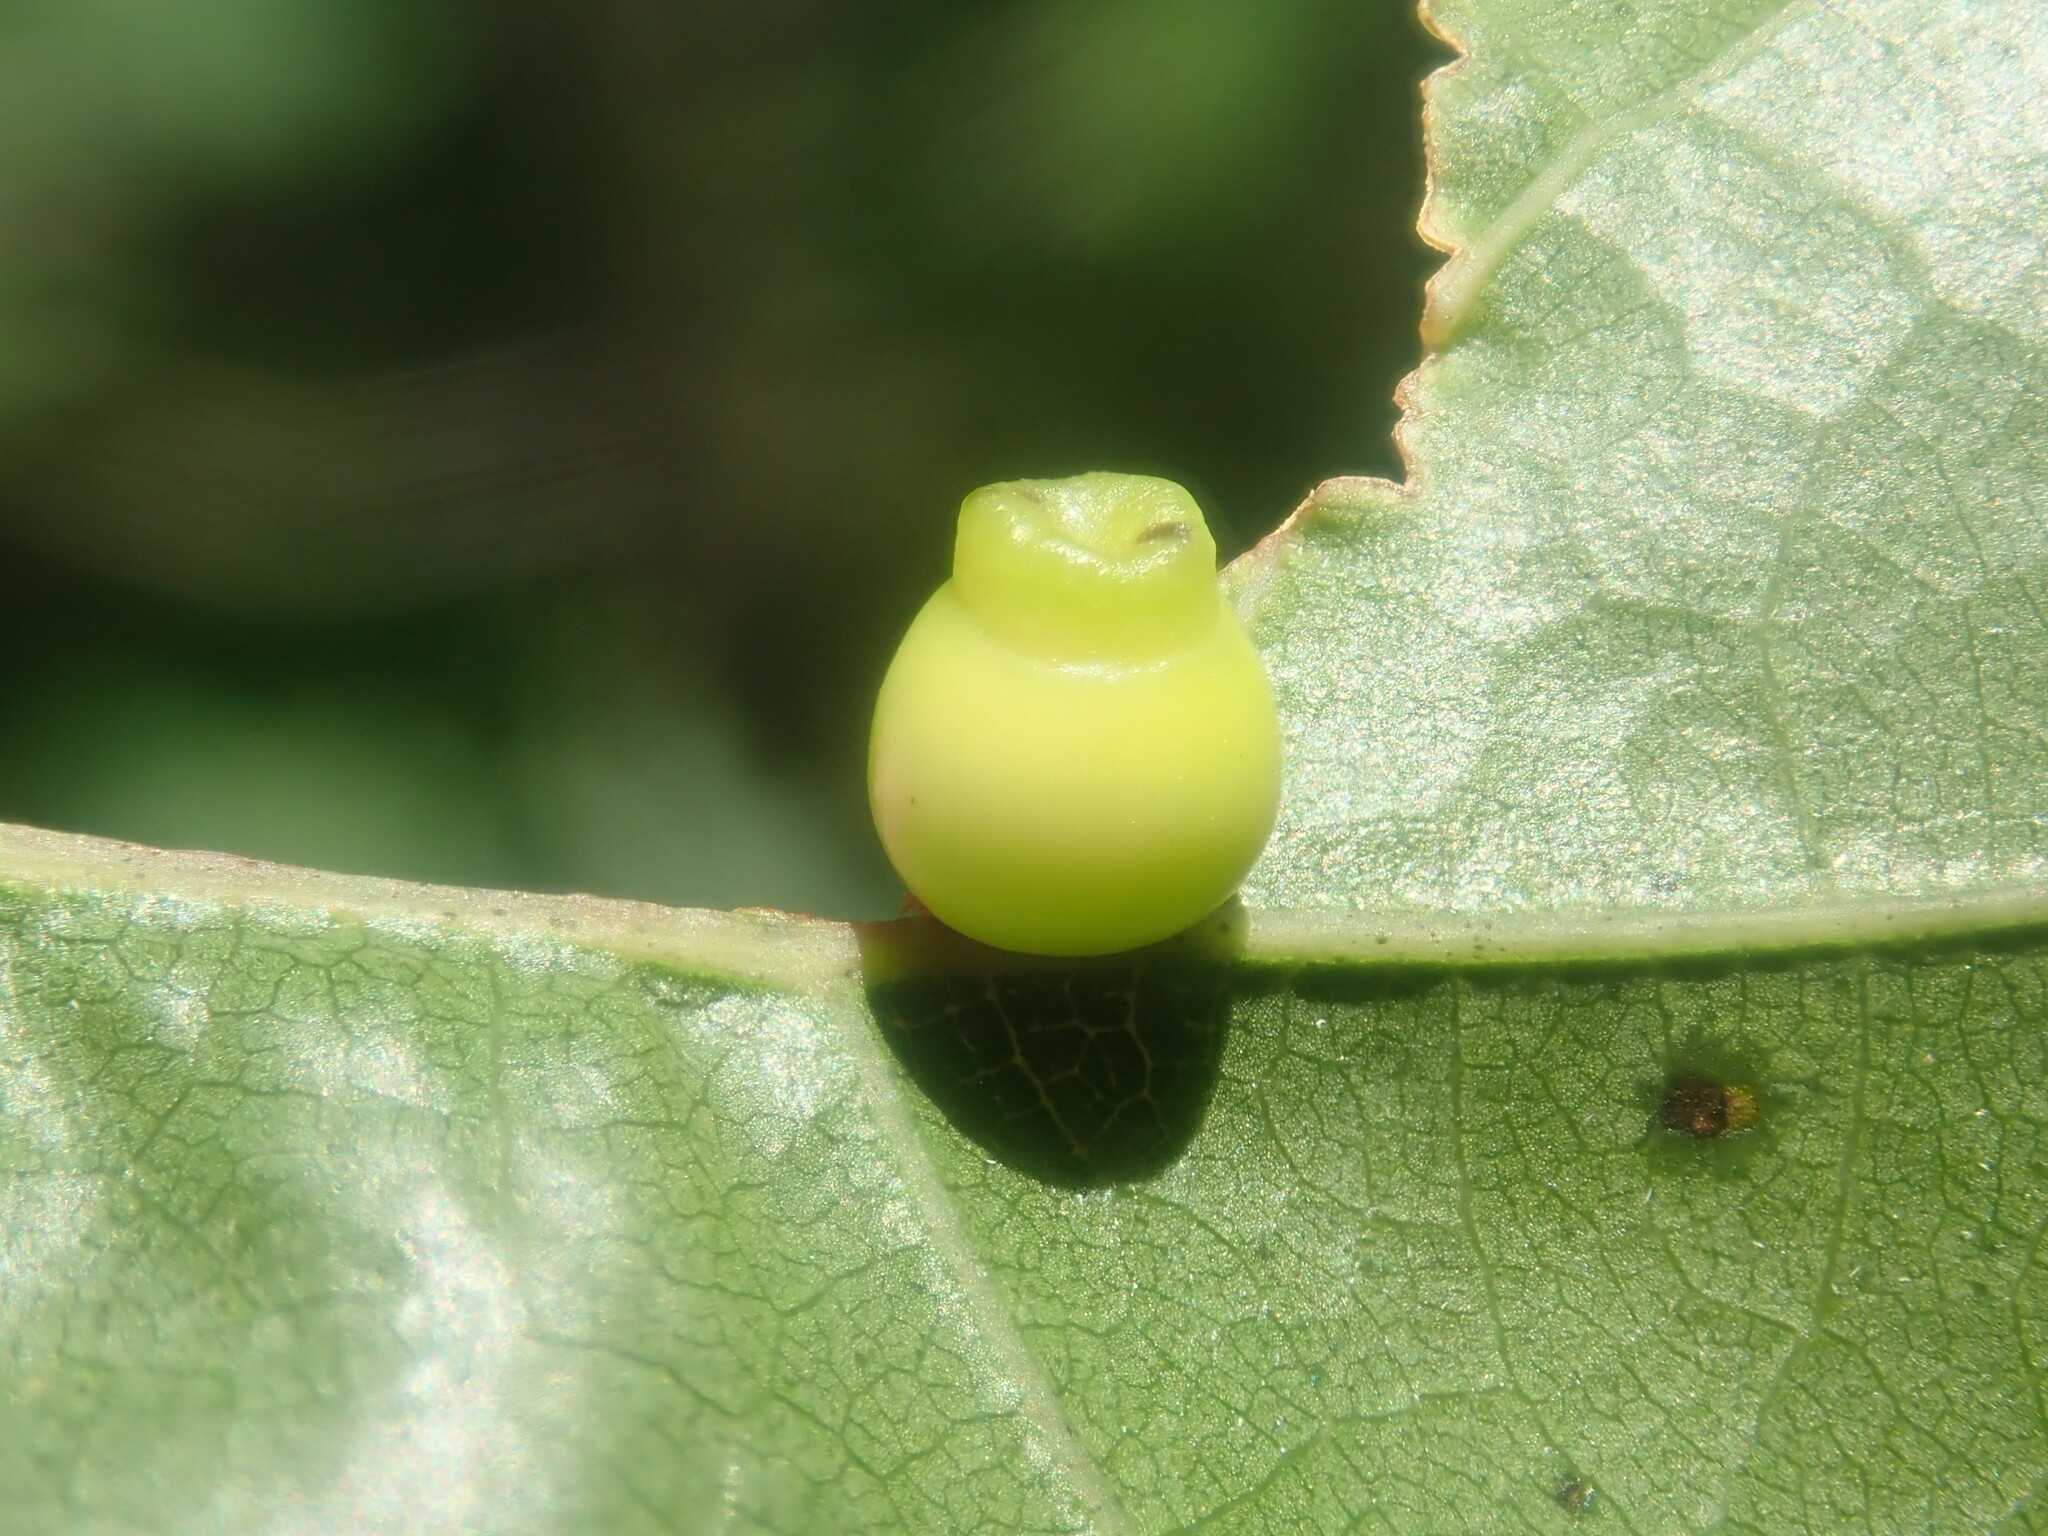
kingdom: Animalia
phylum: Arthropoda
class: Insecta
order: Hymenoptera
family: Cynipidae
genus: Kokkocynips
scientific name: Kokkocynips rileyi
